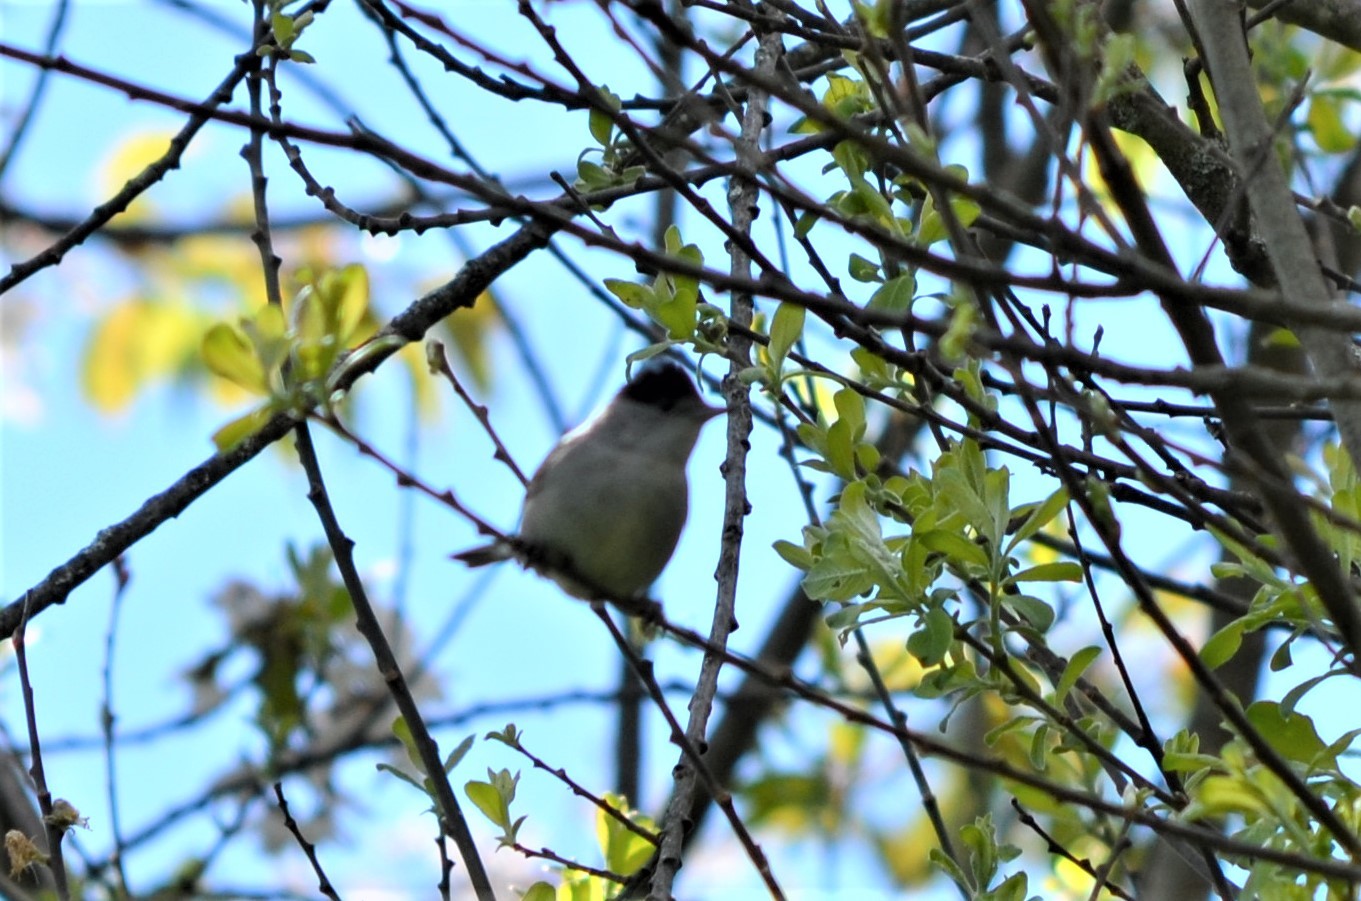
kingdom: Animalia
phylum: Chordata
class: Aves
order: Passeriformes
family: Sylviidae
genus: Sylvia
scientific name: Sylvia atricapilla
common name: Eurasian blackcap
